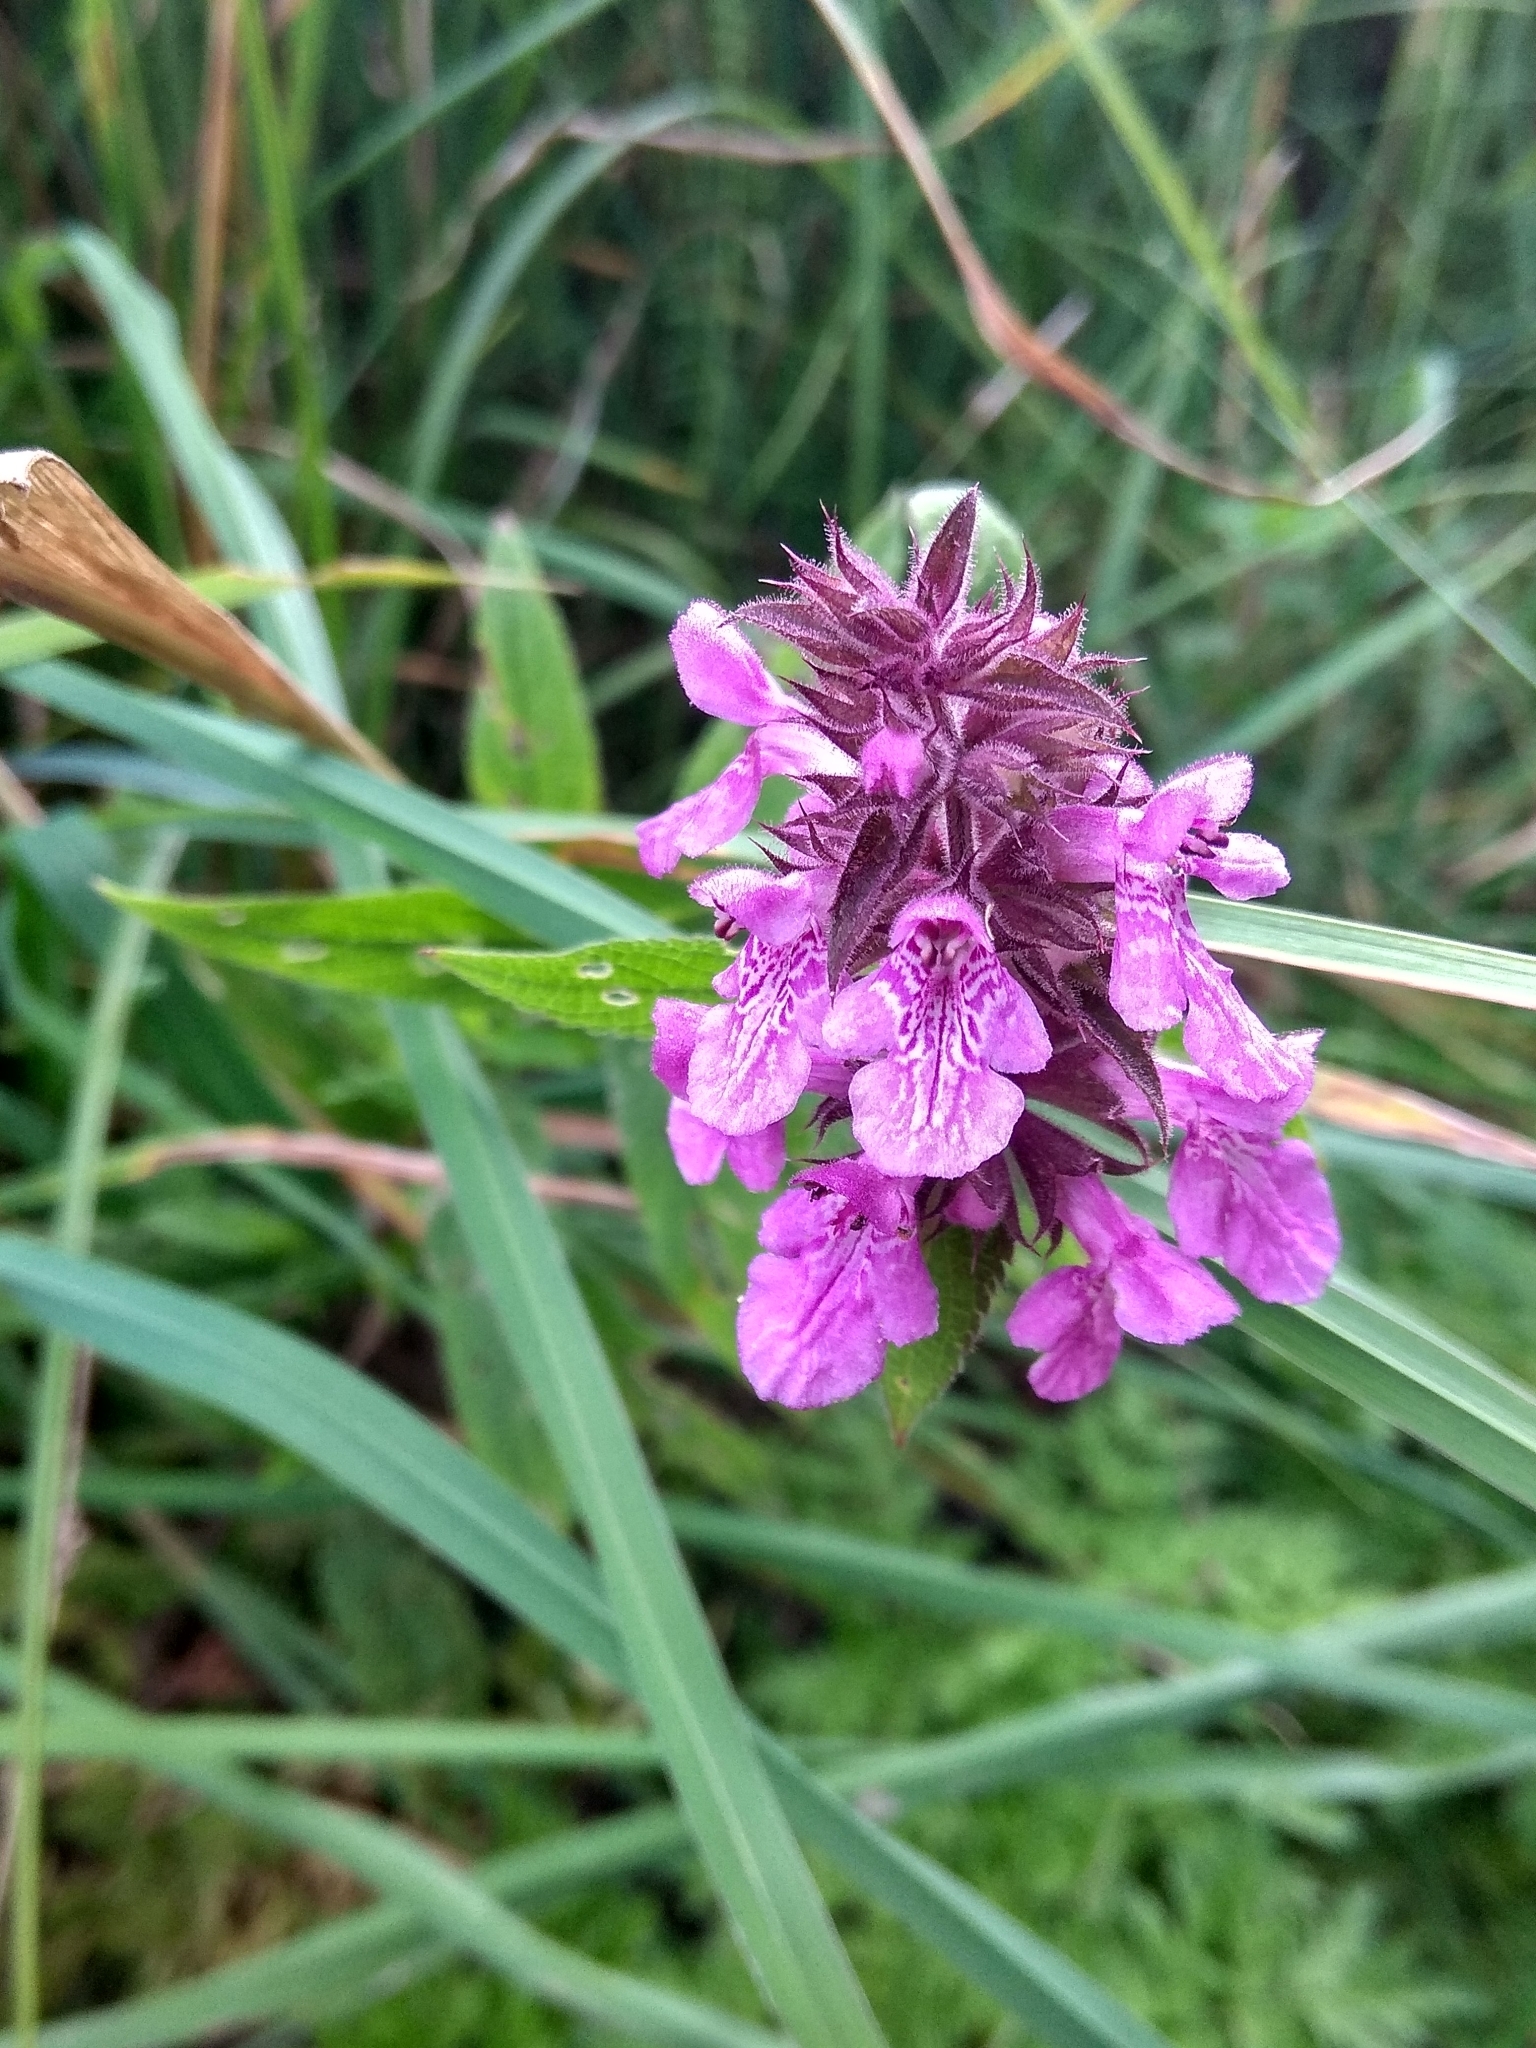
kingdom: Plantae
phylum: Tracheophyta
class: Magnoliopsida
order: Lamiales
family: Lamiaceae
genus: Stachys
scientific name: Stachys palustris
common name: Marsh woundwort
